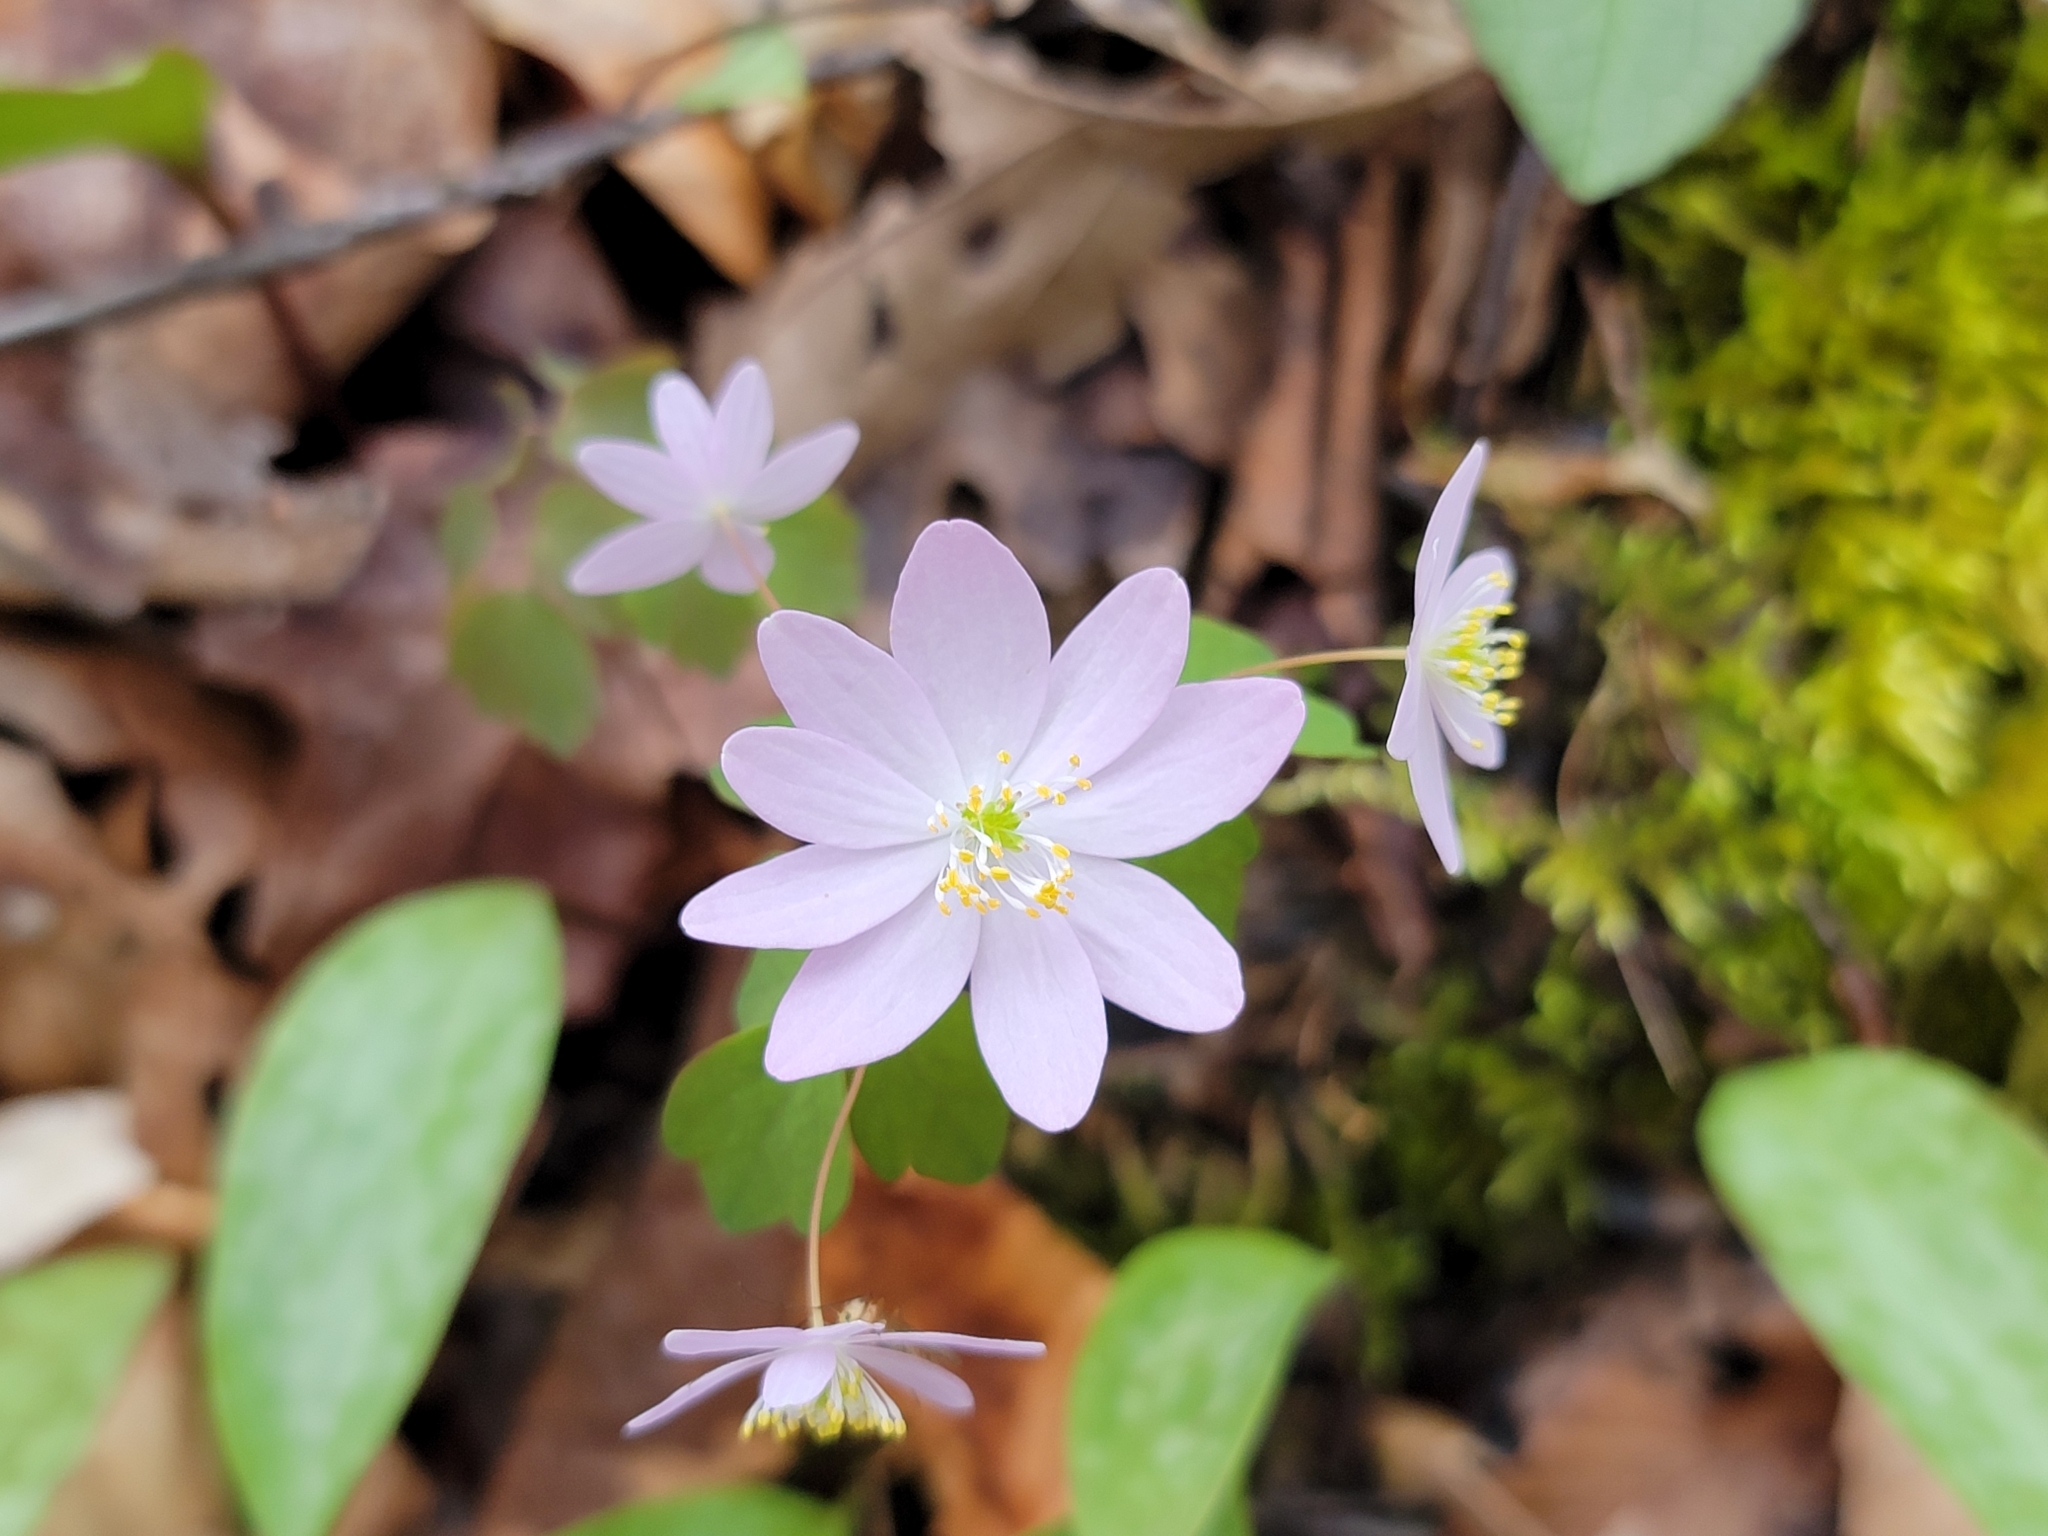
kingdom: Plantae
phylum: Tracheophyta
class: Magnoliopsida
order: Ranunculales
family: Ranunculaceae
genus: Thalictrum
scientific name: Thalictrum thalictroides
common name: Rue-anemone
